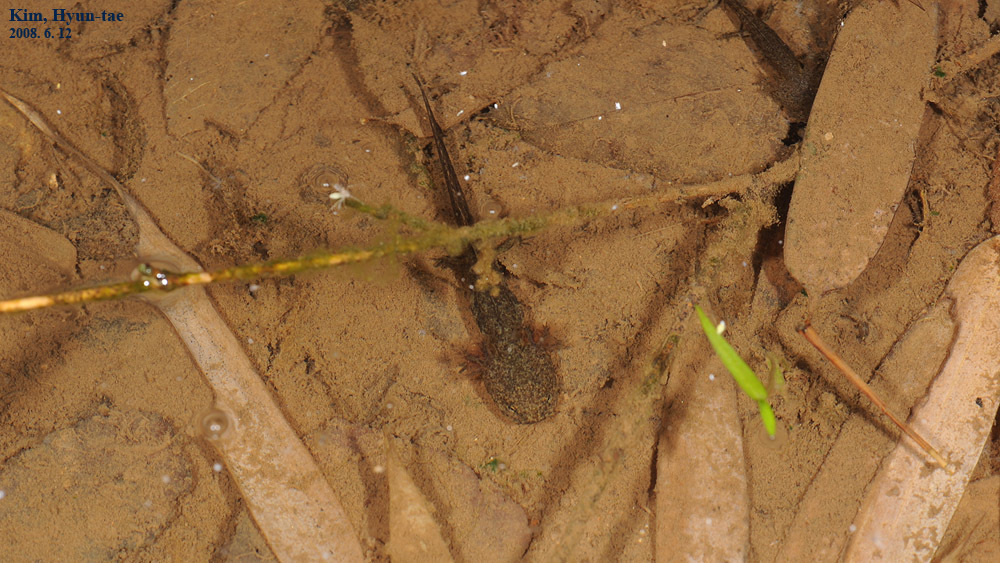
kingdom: Animalia
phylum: Chordata
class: Amphibia
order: Caudata
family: Hynobiidae
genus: Hynobius
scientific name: Hynobius leechii
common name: Gensan salamander
